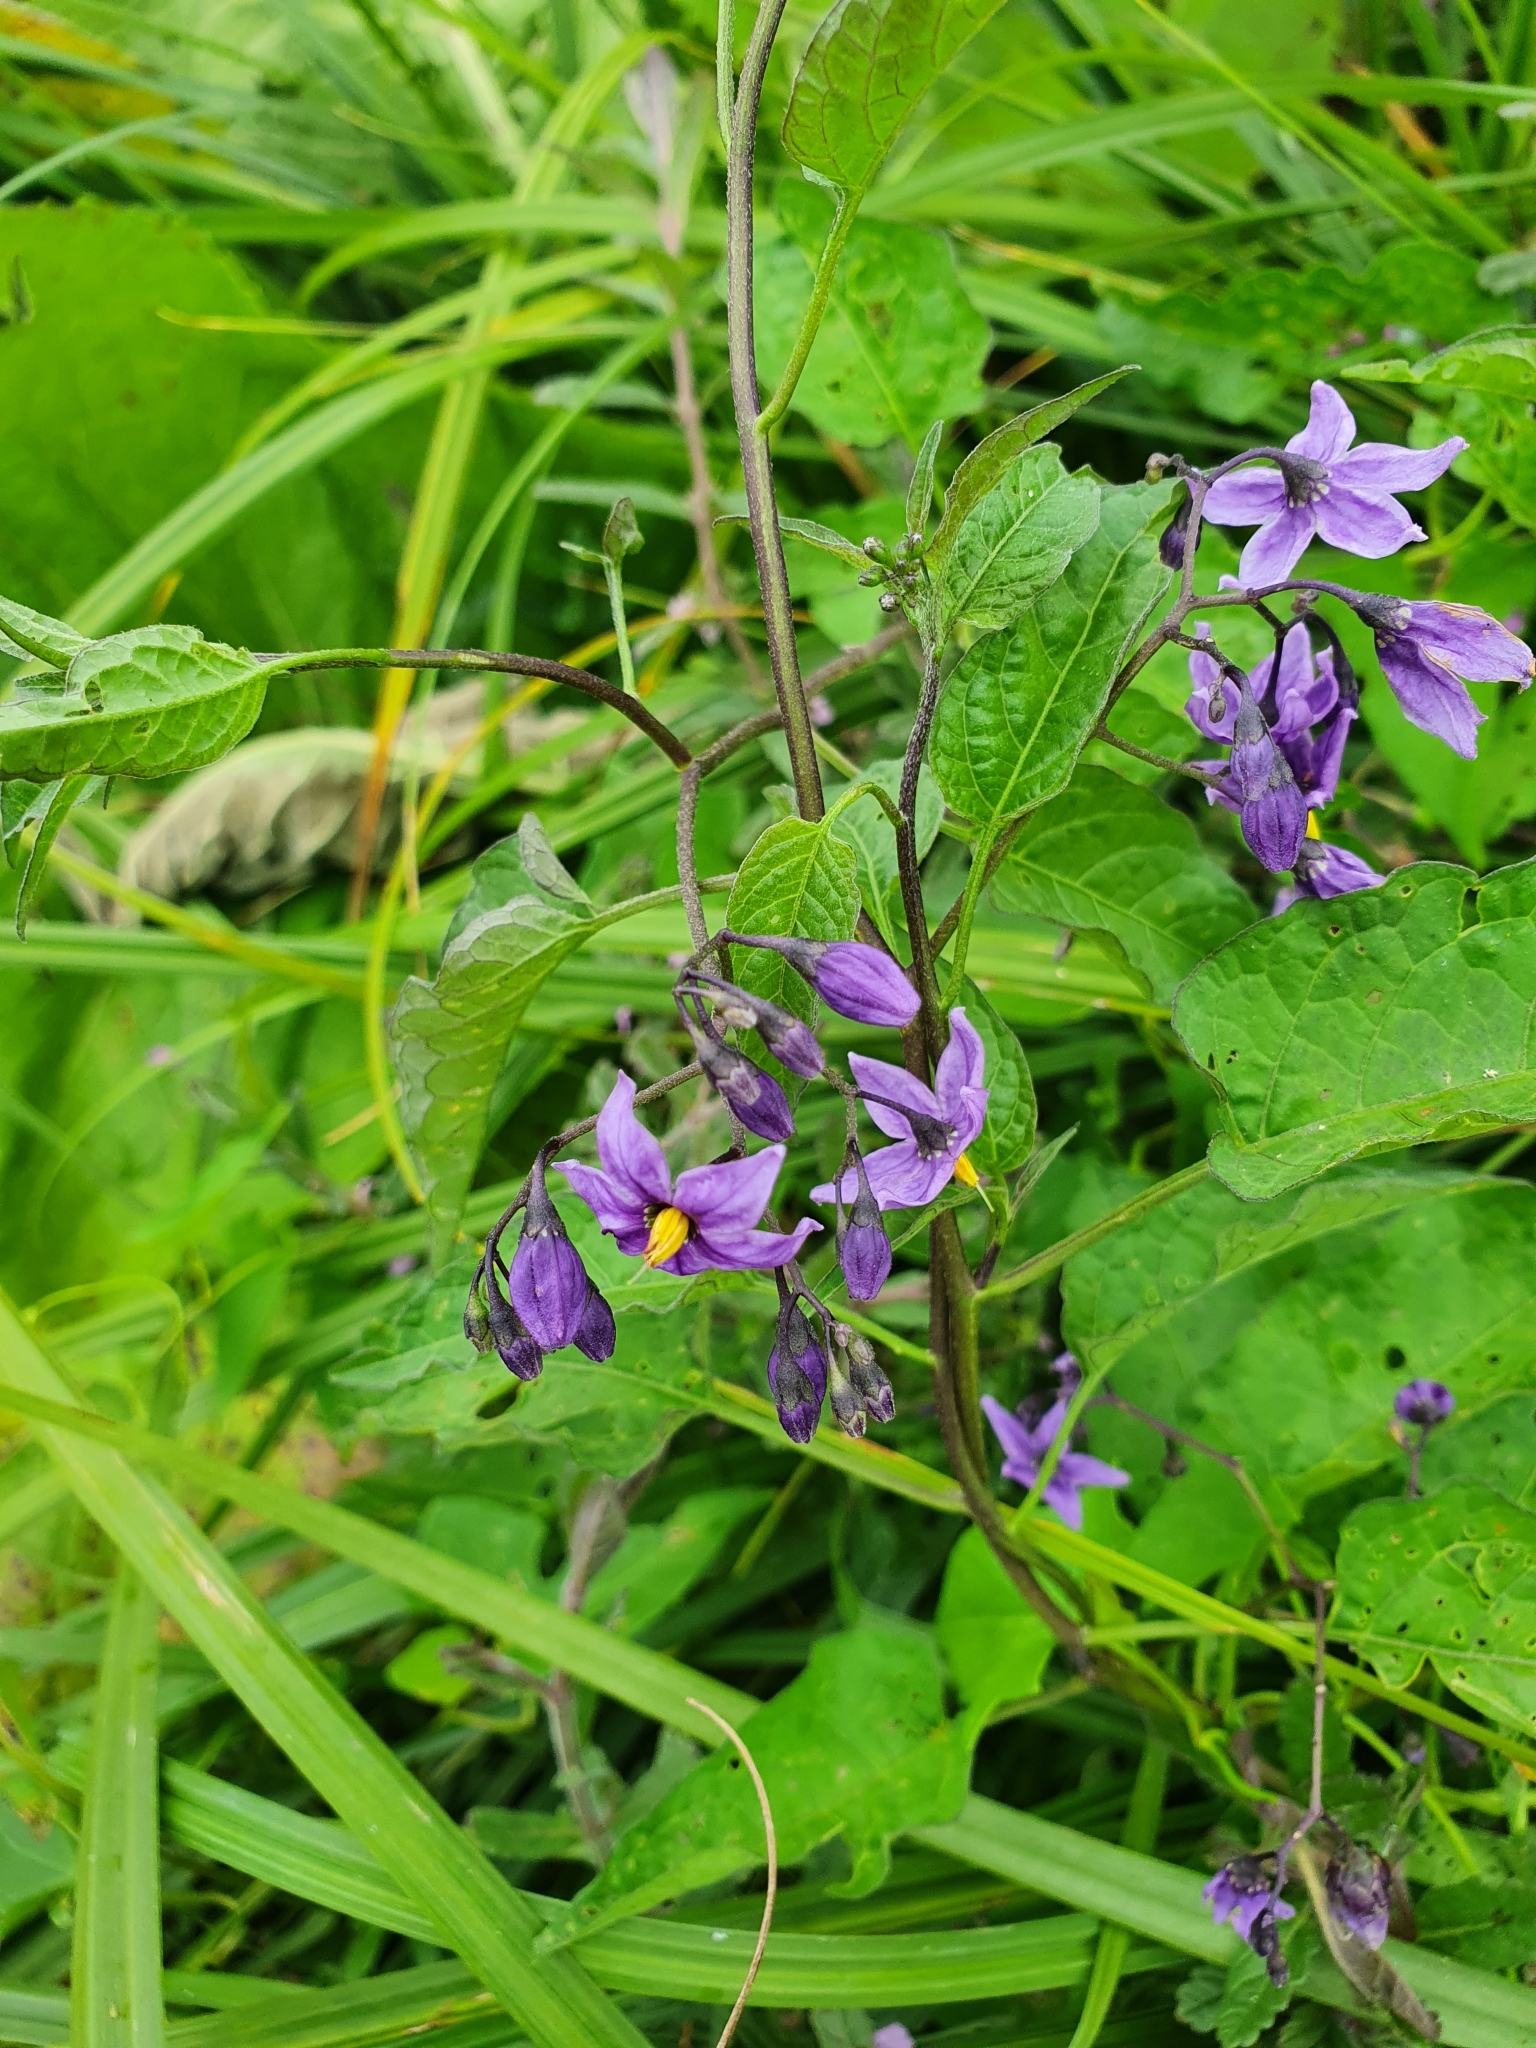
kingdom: Plantae
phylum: Tracheophyta
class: Magnoliopsida
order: Solanales
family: Solanaceae
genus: Solanum
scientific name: Solanum dulcamara
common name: Climbing nightshade
